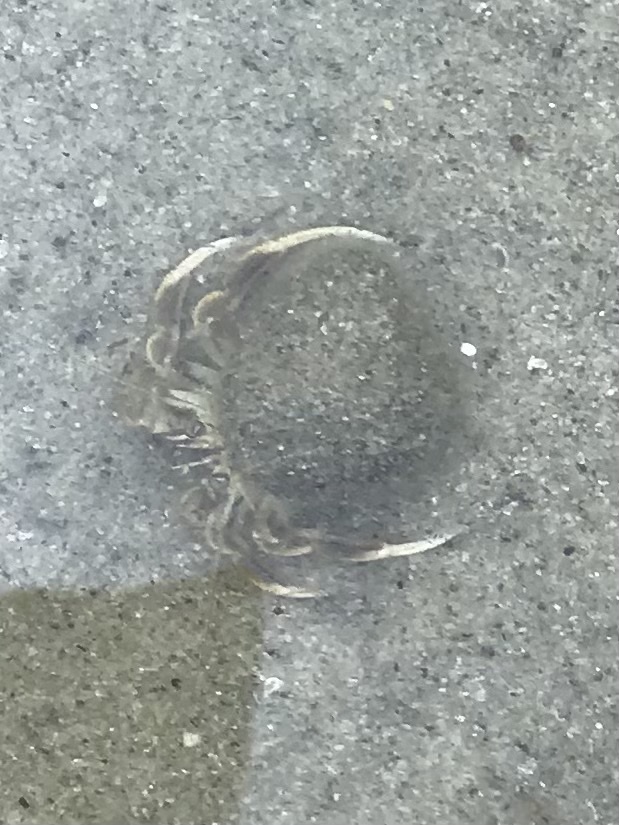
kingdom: Animalia
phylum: Arthropoda
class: Malacostraca
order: Decapoda
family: Paguridae
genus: Pagurus
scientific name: Pagurus longicarpus
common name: Long-armed hermit crab
